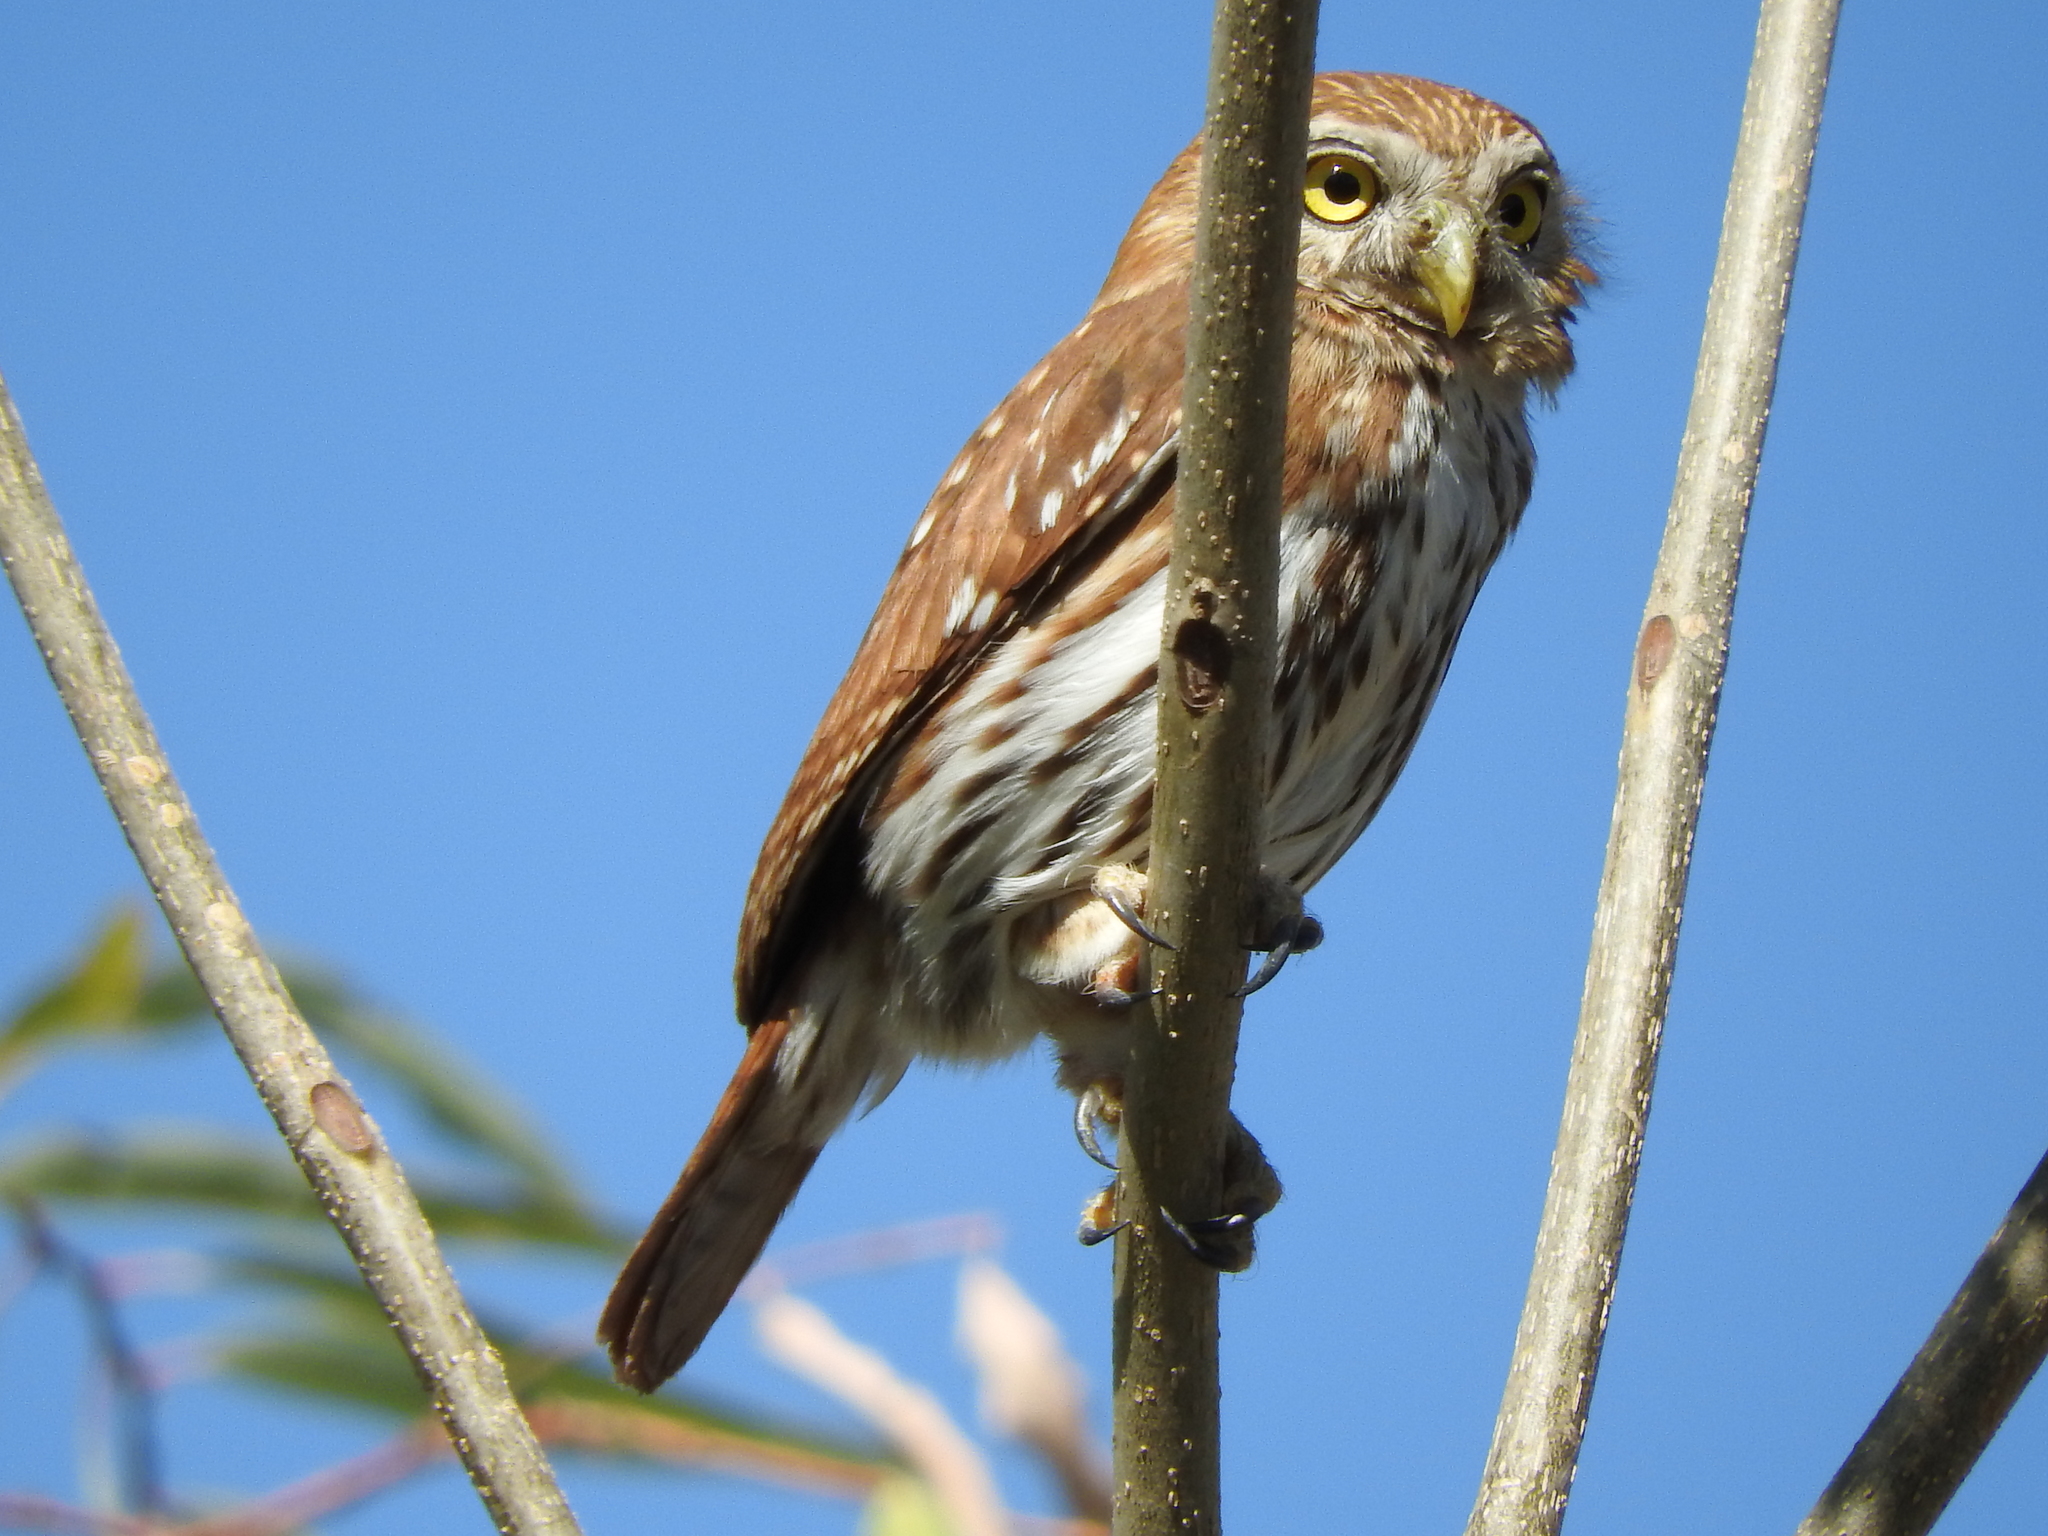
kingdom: Animalia
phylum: Chordata
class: Aves
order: Strigiformes
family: Strigidae
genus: Glaucidium
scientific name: Glaucidium brasilianum
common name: Ferruginous pygmy-owl
